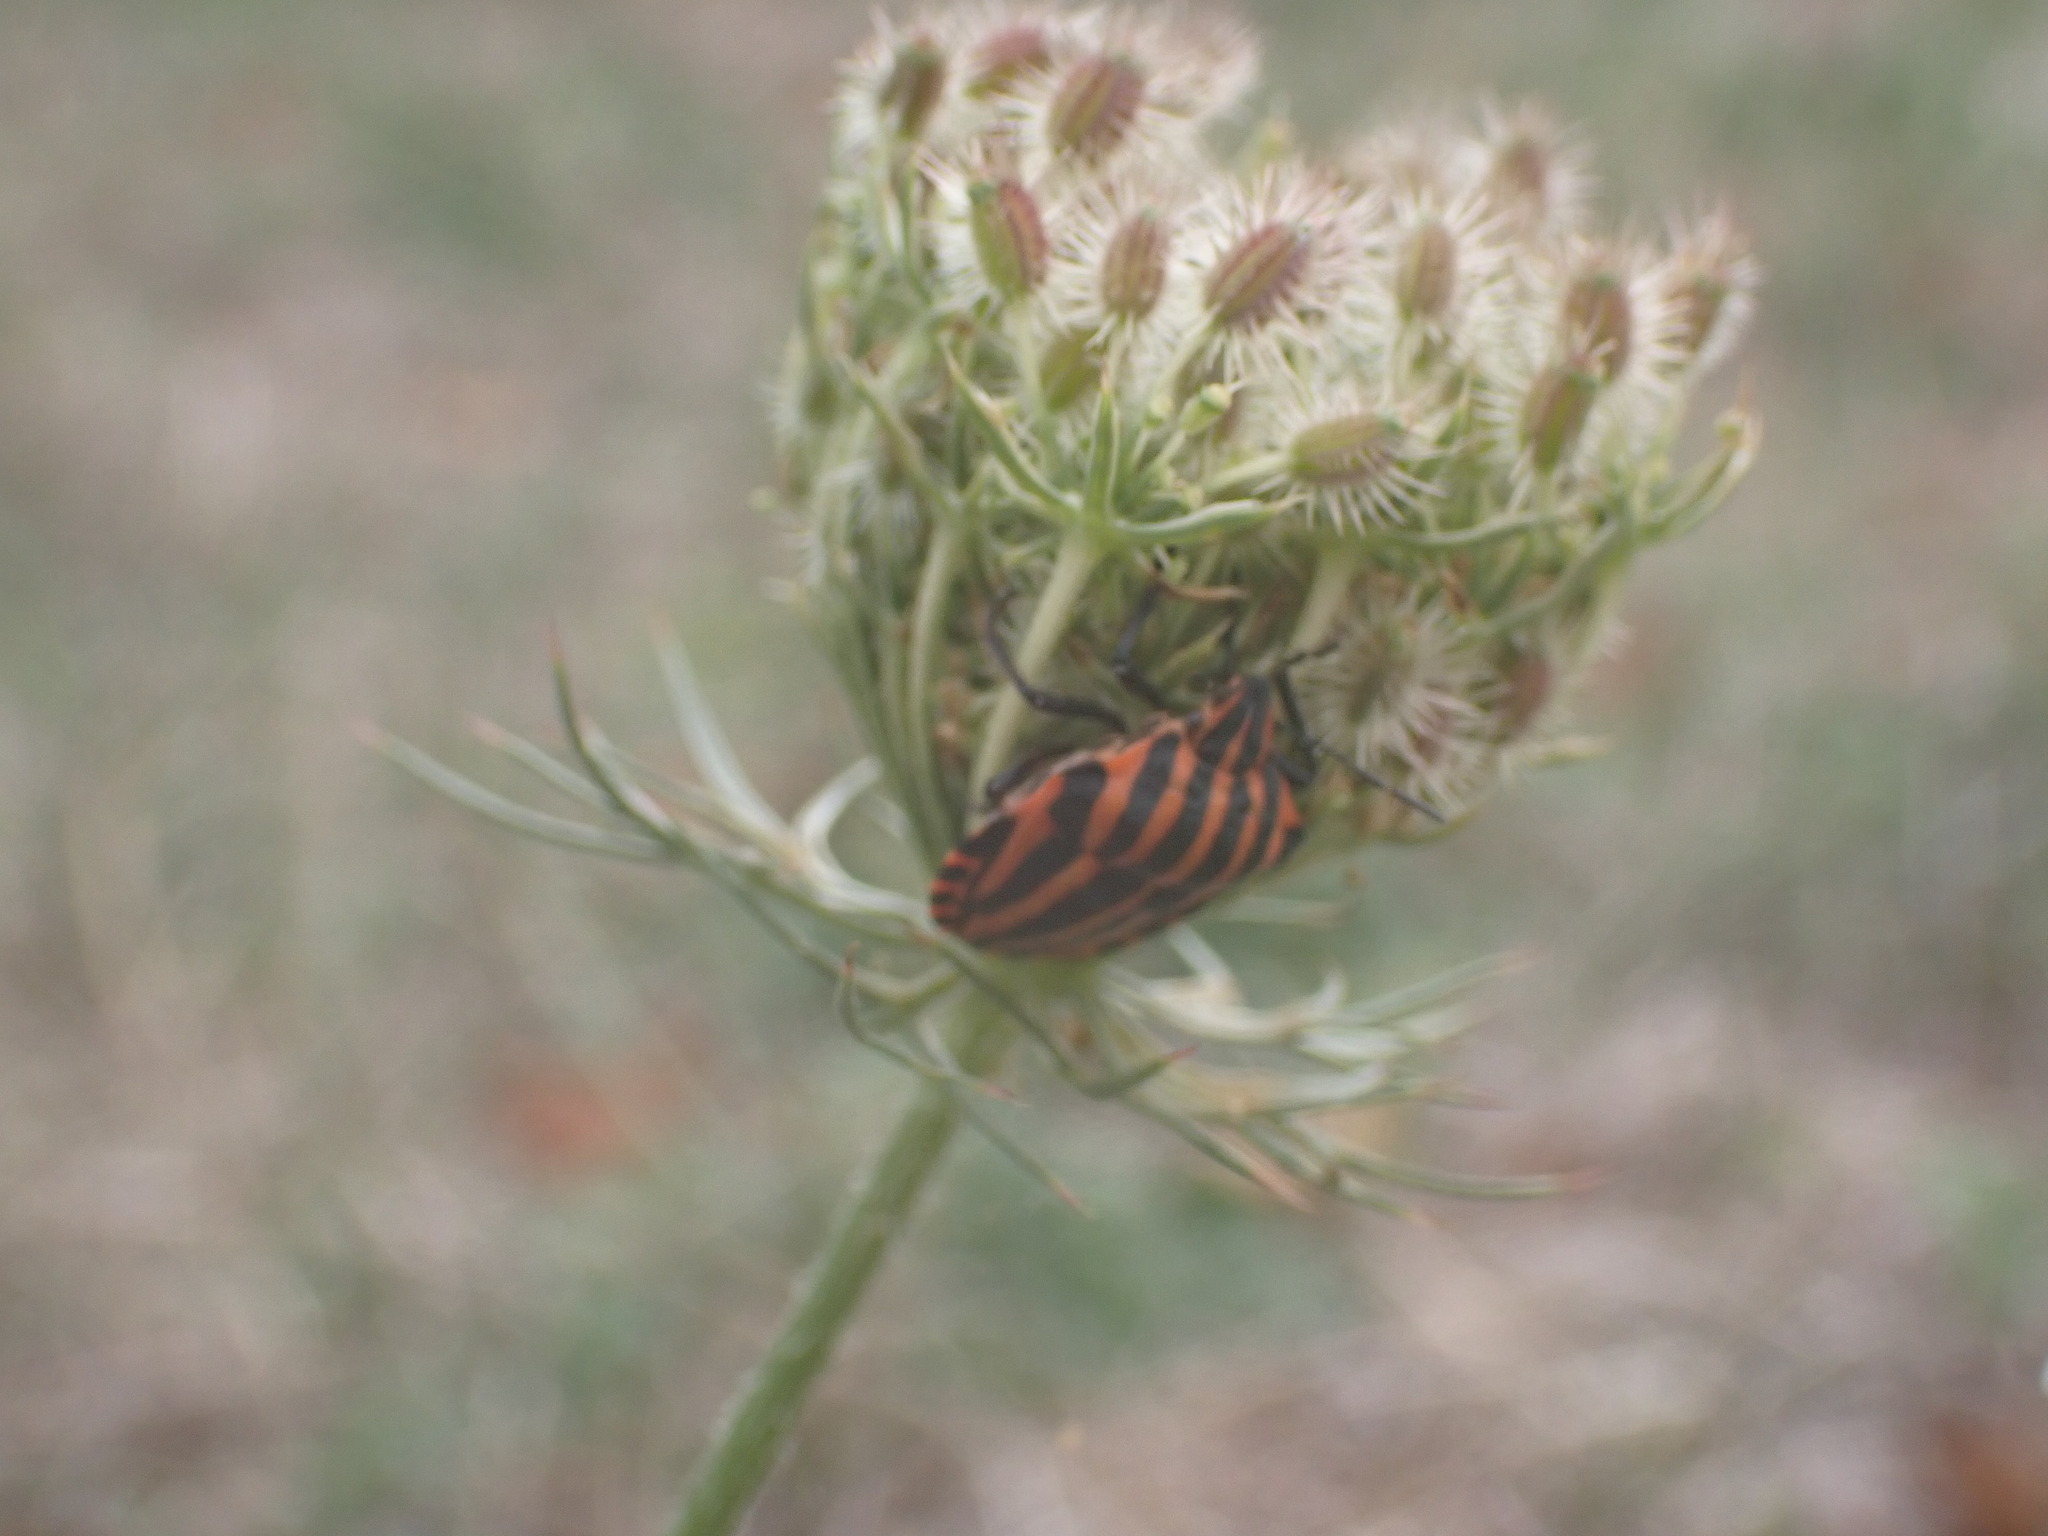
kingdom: Plantae
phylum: Tracheophyta
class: Magnoliopsida
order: Apiales
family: Apiaceae
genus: Daucus
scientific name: Daucus carota
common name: Wild carrot
